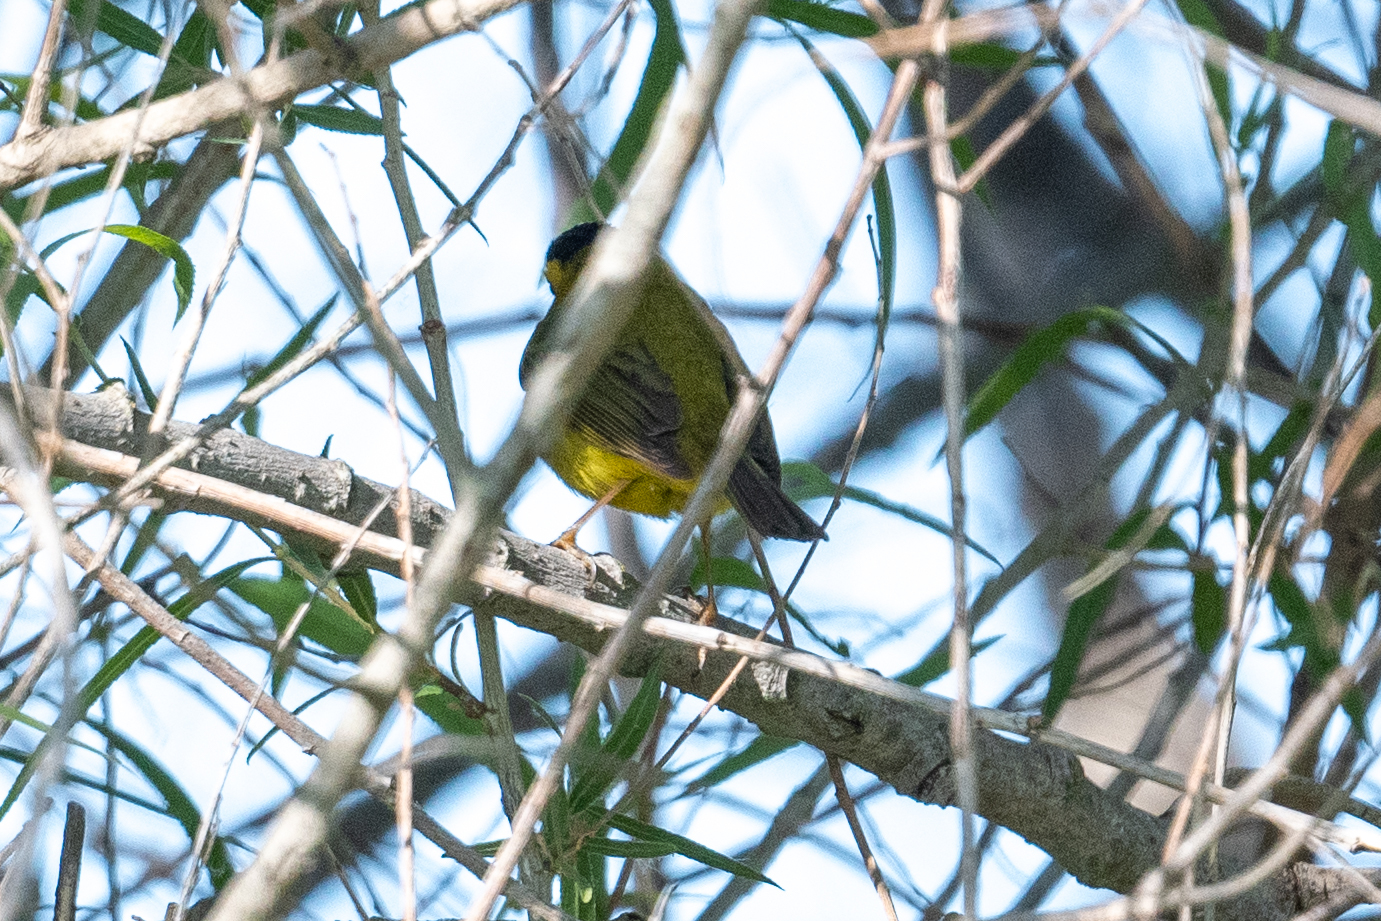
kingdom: Animalia
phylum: Chordata
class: Aves
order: Passeriformes
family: Parulidae
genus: Cardellina
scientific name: Cardellina pusilla
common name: Wilson's warbler
